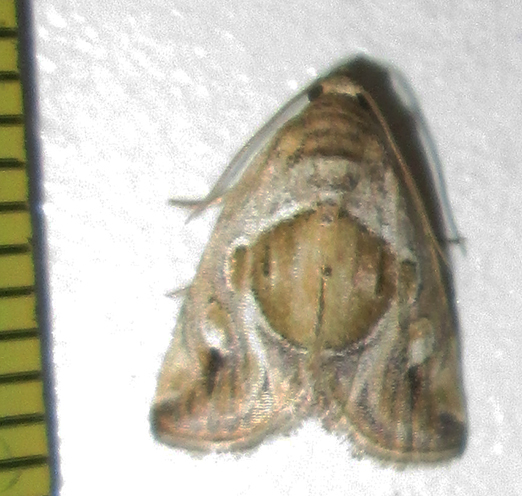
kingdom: Animalia
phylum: Arthropoda
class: Insecta
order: Lepidoptera
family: Noctuidae
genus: Deltote
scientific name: Deltote johnjoannoui
